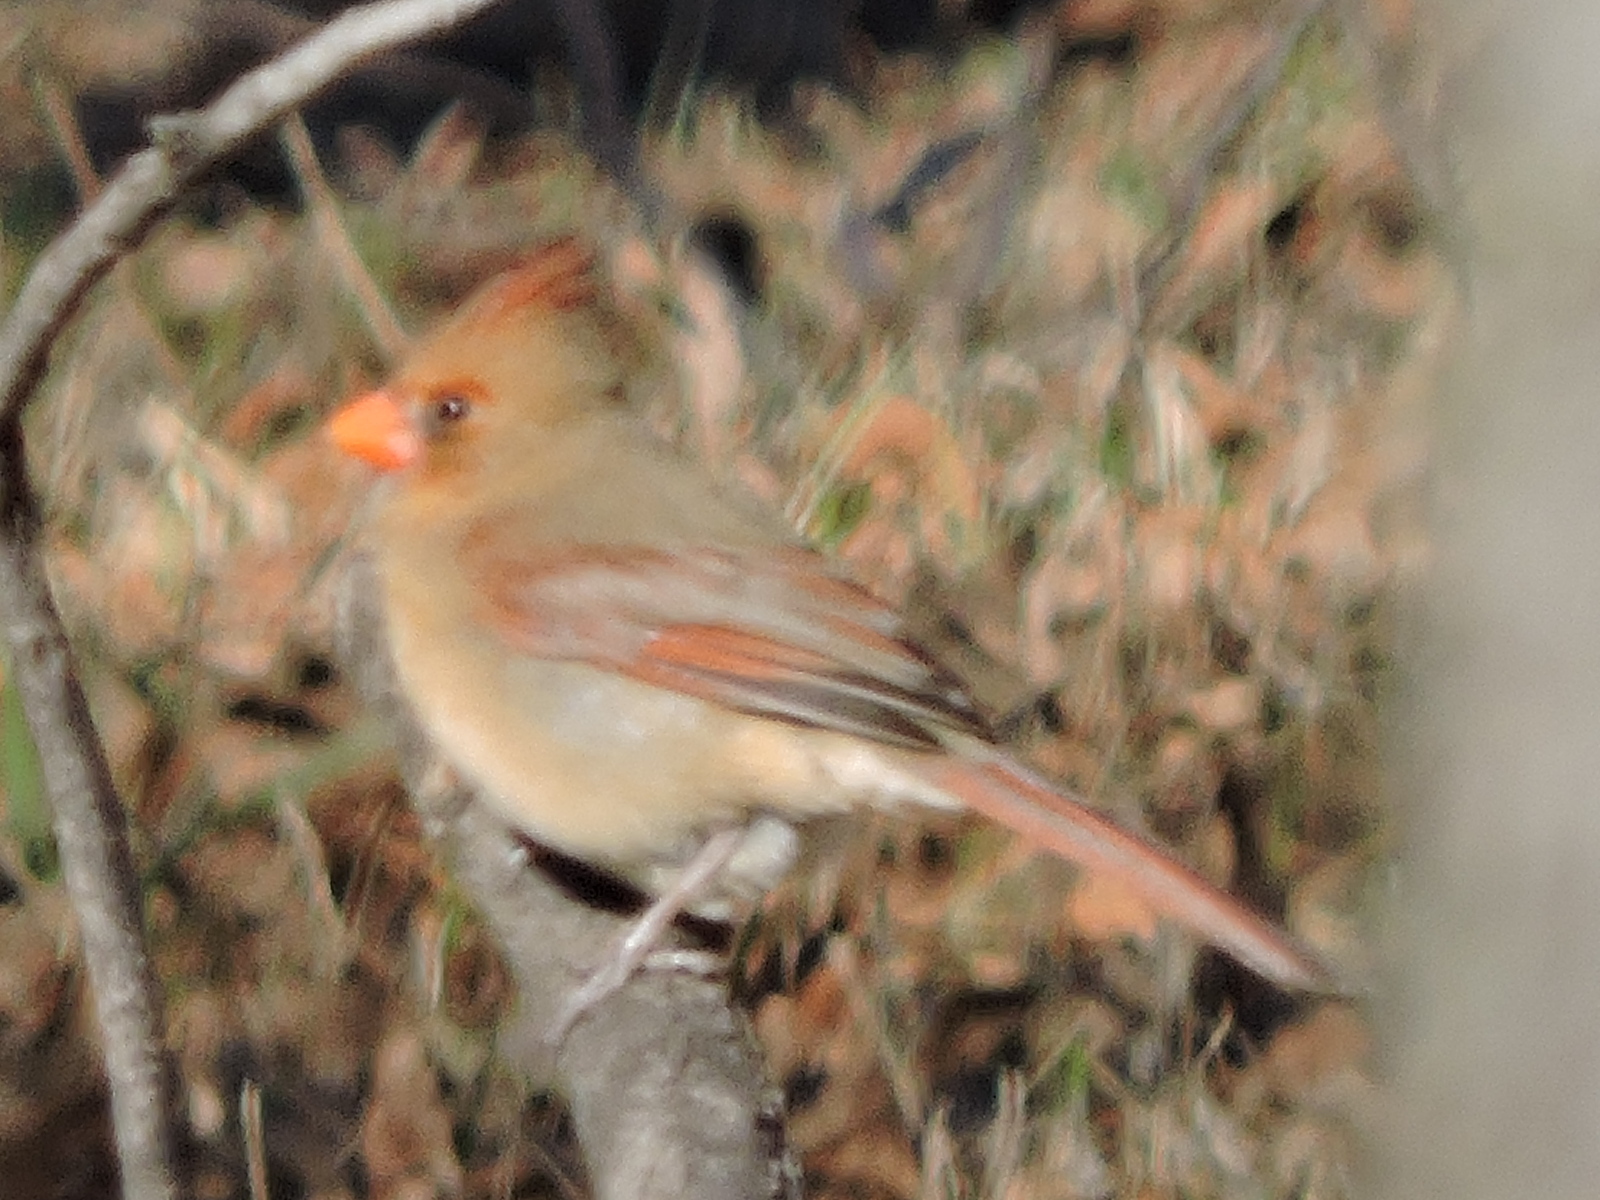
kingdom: Animalia
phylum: Chordata
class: Aves
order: Passeriformes
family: Cardinalidae
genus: Cardinalis
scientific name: Cardinalis cardinalis
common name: Northern cardinal
